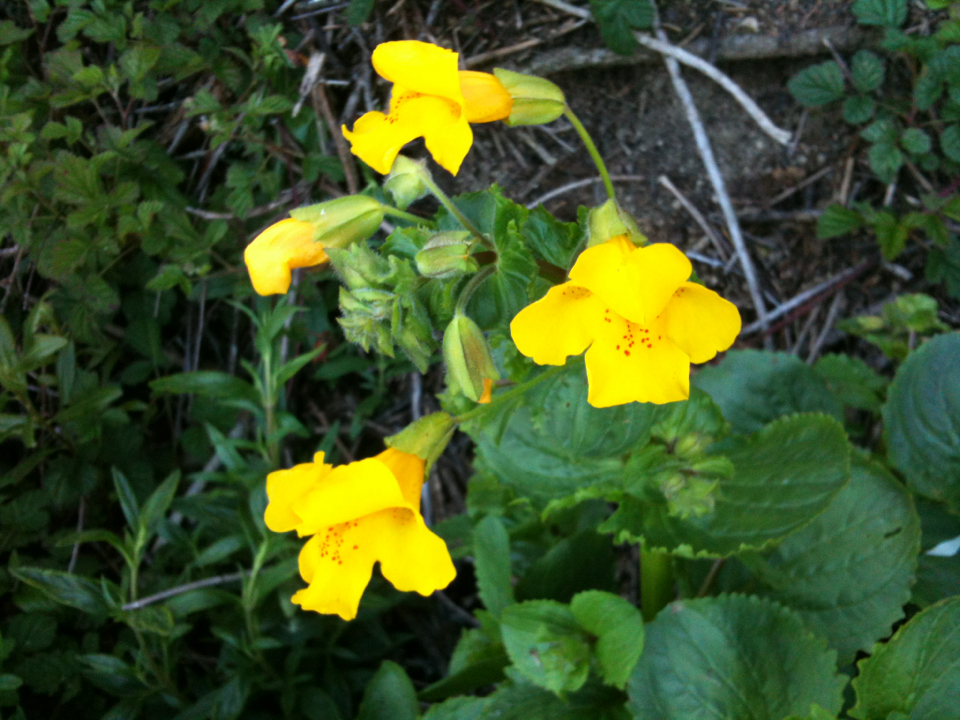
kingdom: Plantae
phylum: Tracheophyta
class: Magnoliopsida
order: Lamiales
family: Phrymaceae
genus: Erythranthe
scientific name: Erythranthe guttata
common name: Monkeyflower
